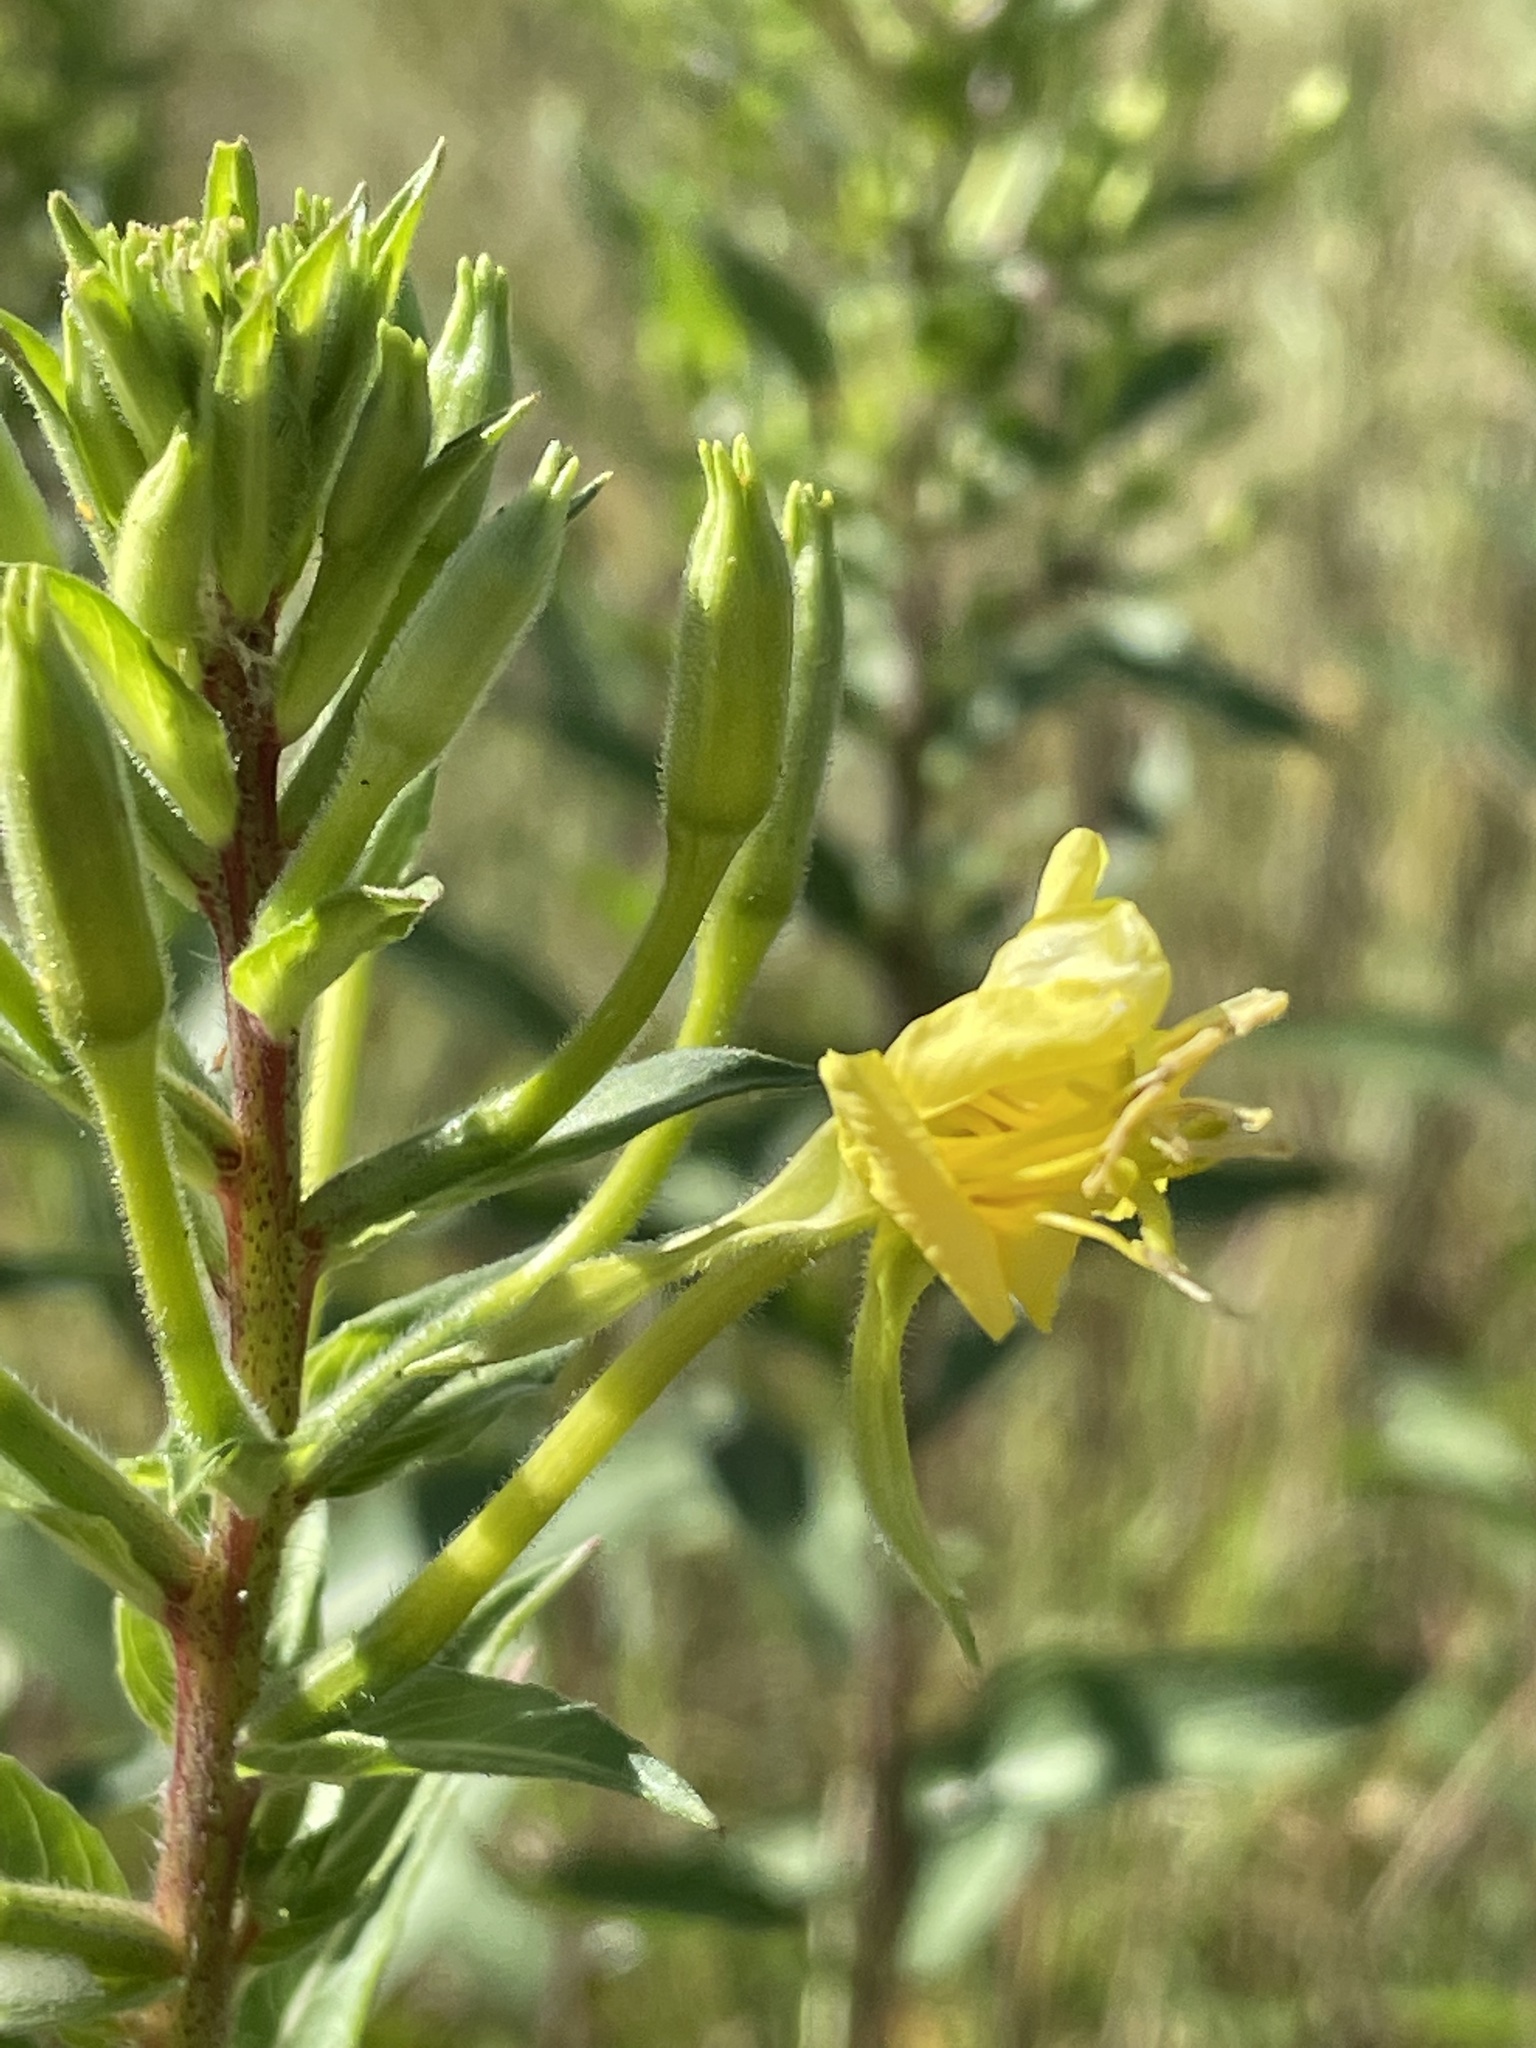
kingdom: Plantae
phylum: Tracheophyta
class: Magnoliopsida
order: Myrtales
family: Onagraceae
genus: Oenothera
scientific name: Oenothera biennis
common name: Common evening-primrose
